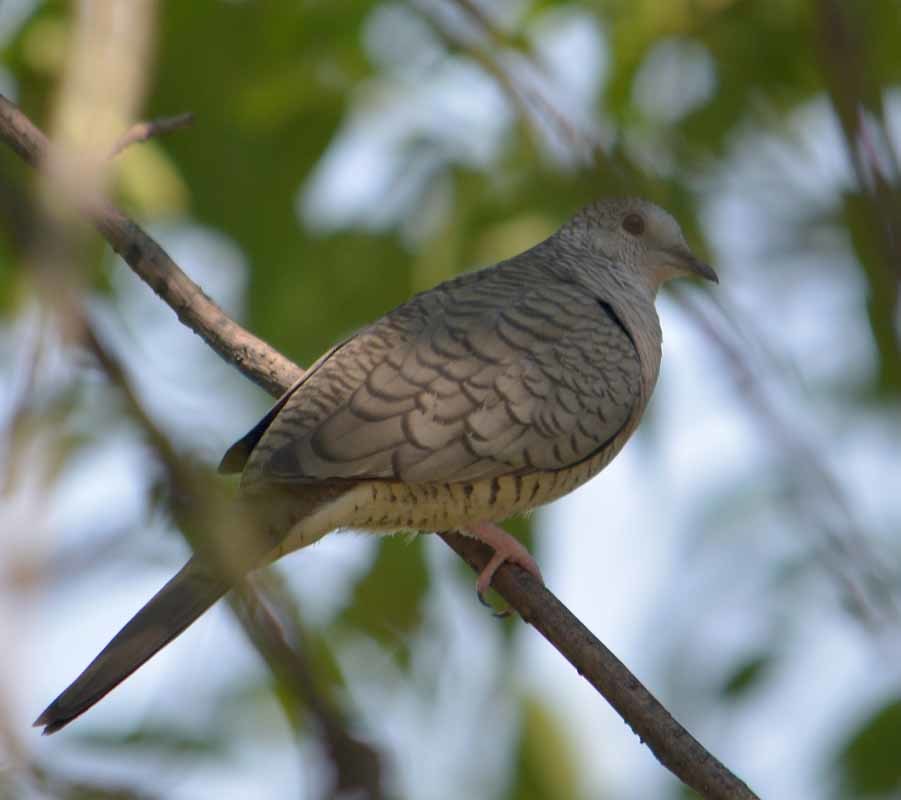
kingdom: Animalia
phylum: Chordata
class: Aves
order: Columbiformes
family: Columbidae
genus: Columbina
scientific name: Columbina inca
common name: Inca dove
